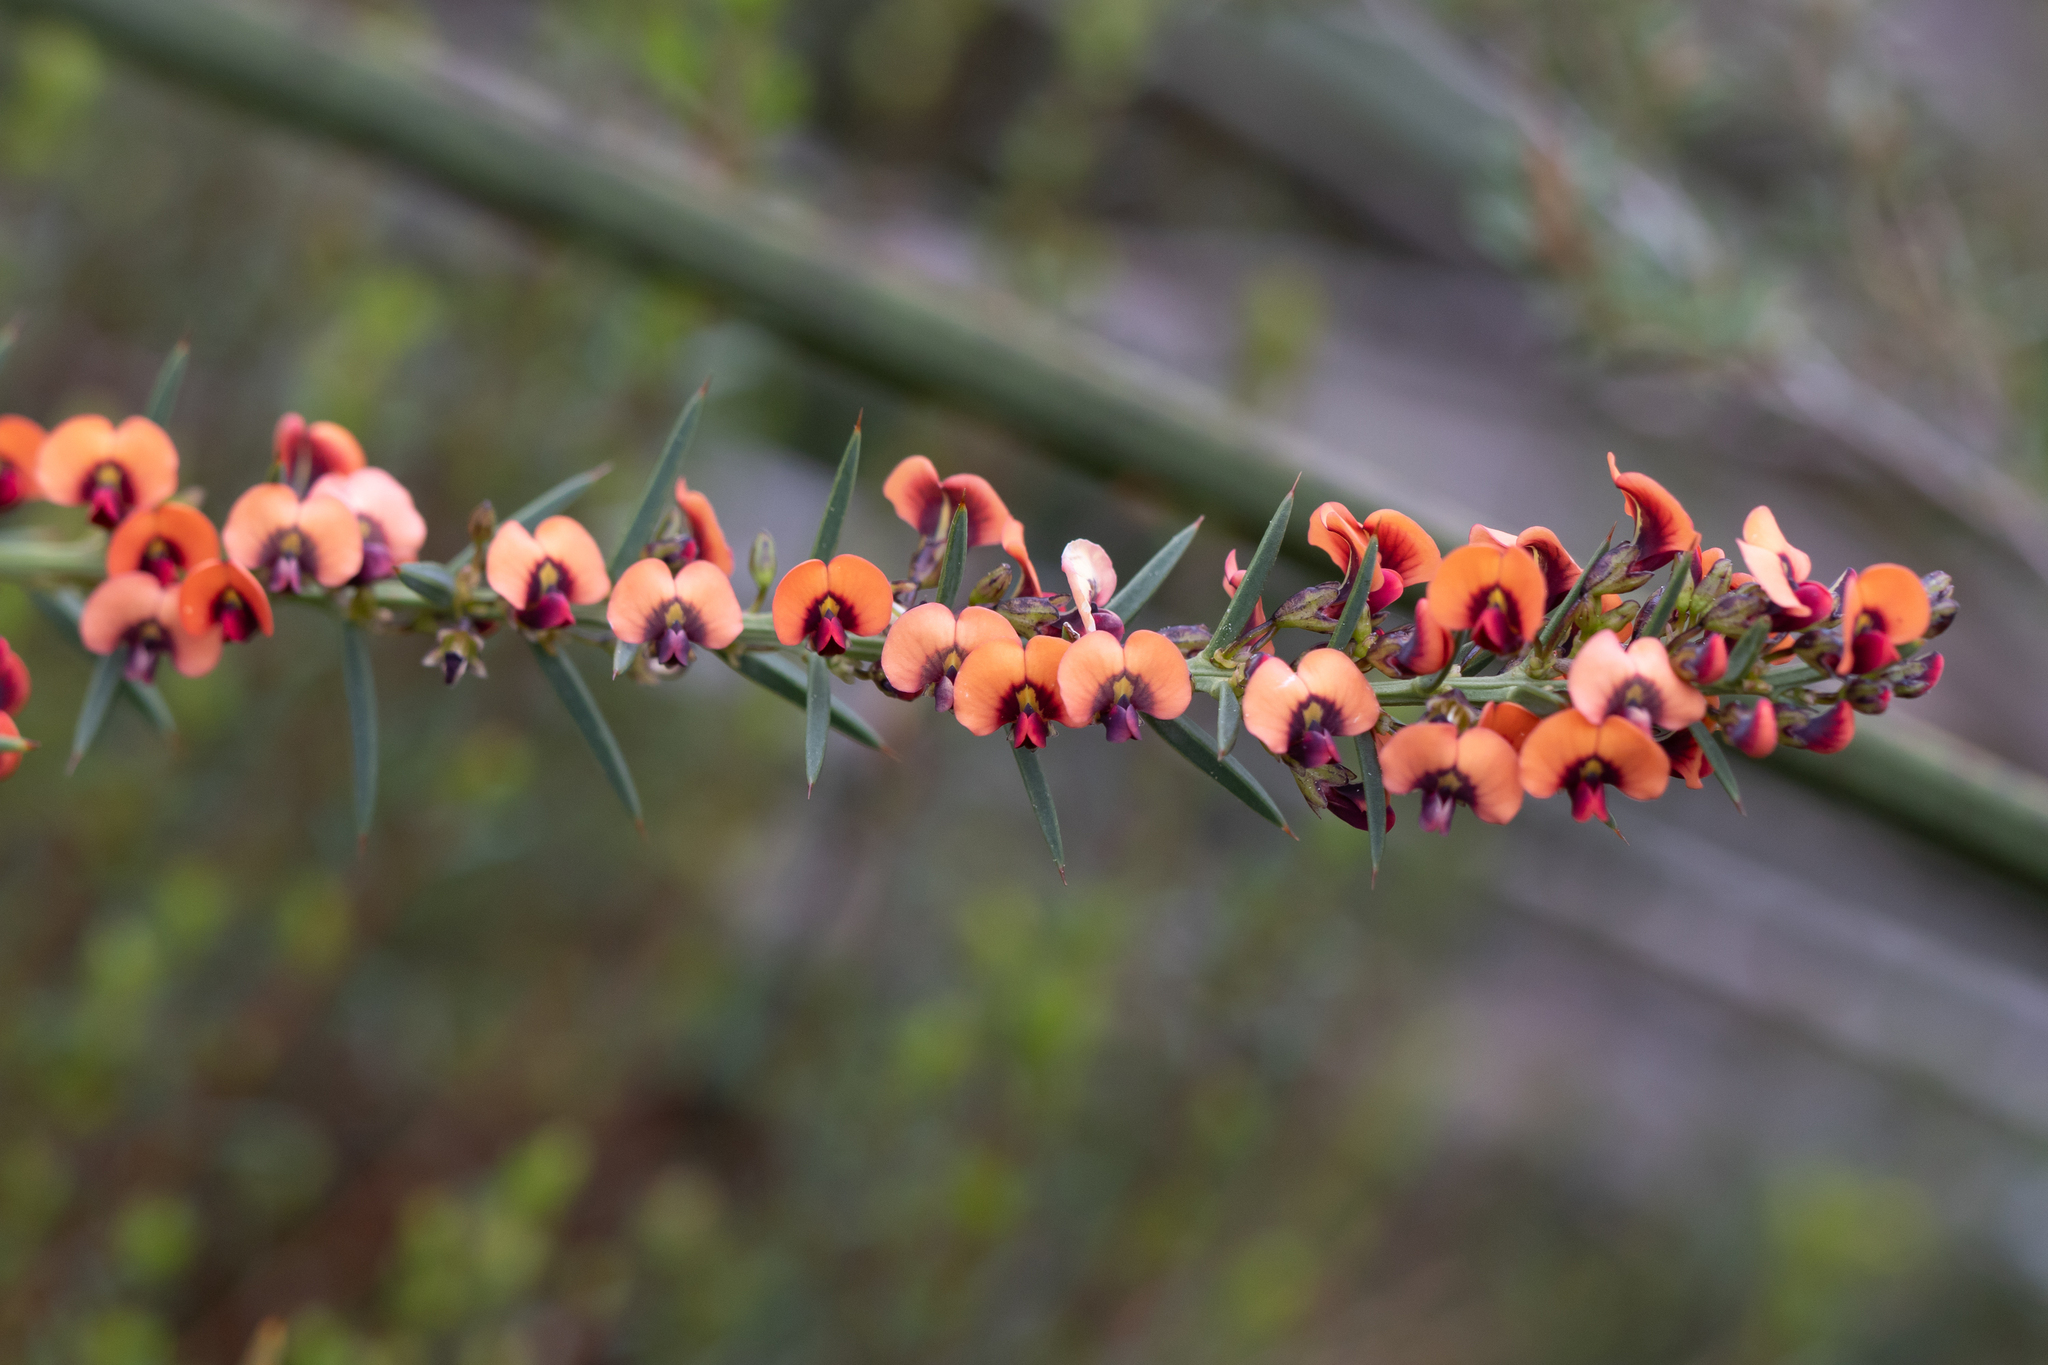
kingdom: Plantae
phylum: Tracheophyta
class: Magnoliopsida
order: Fabales
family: Fabaceae
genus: Daviesia
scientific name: Daviesia ulicifolia
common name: Gorse bitter-pea
